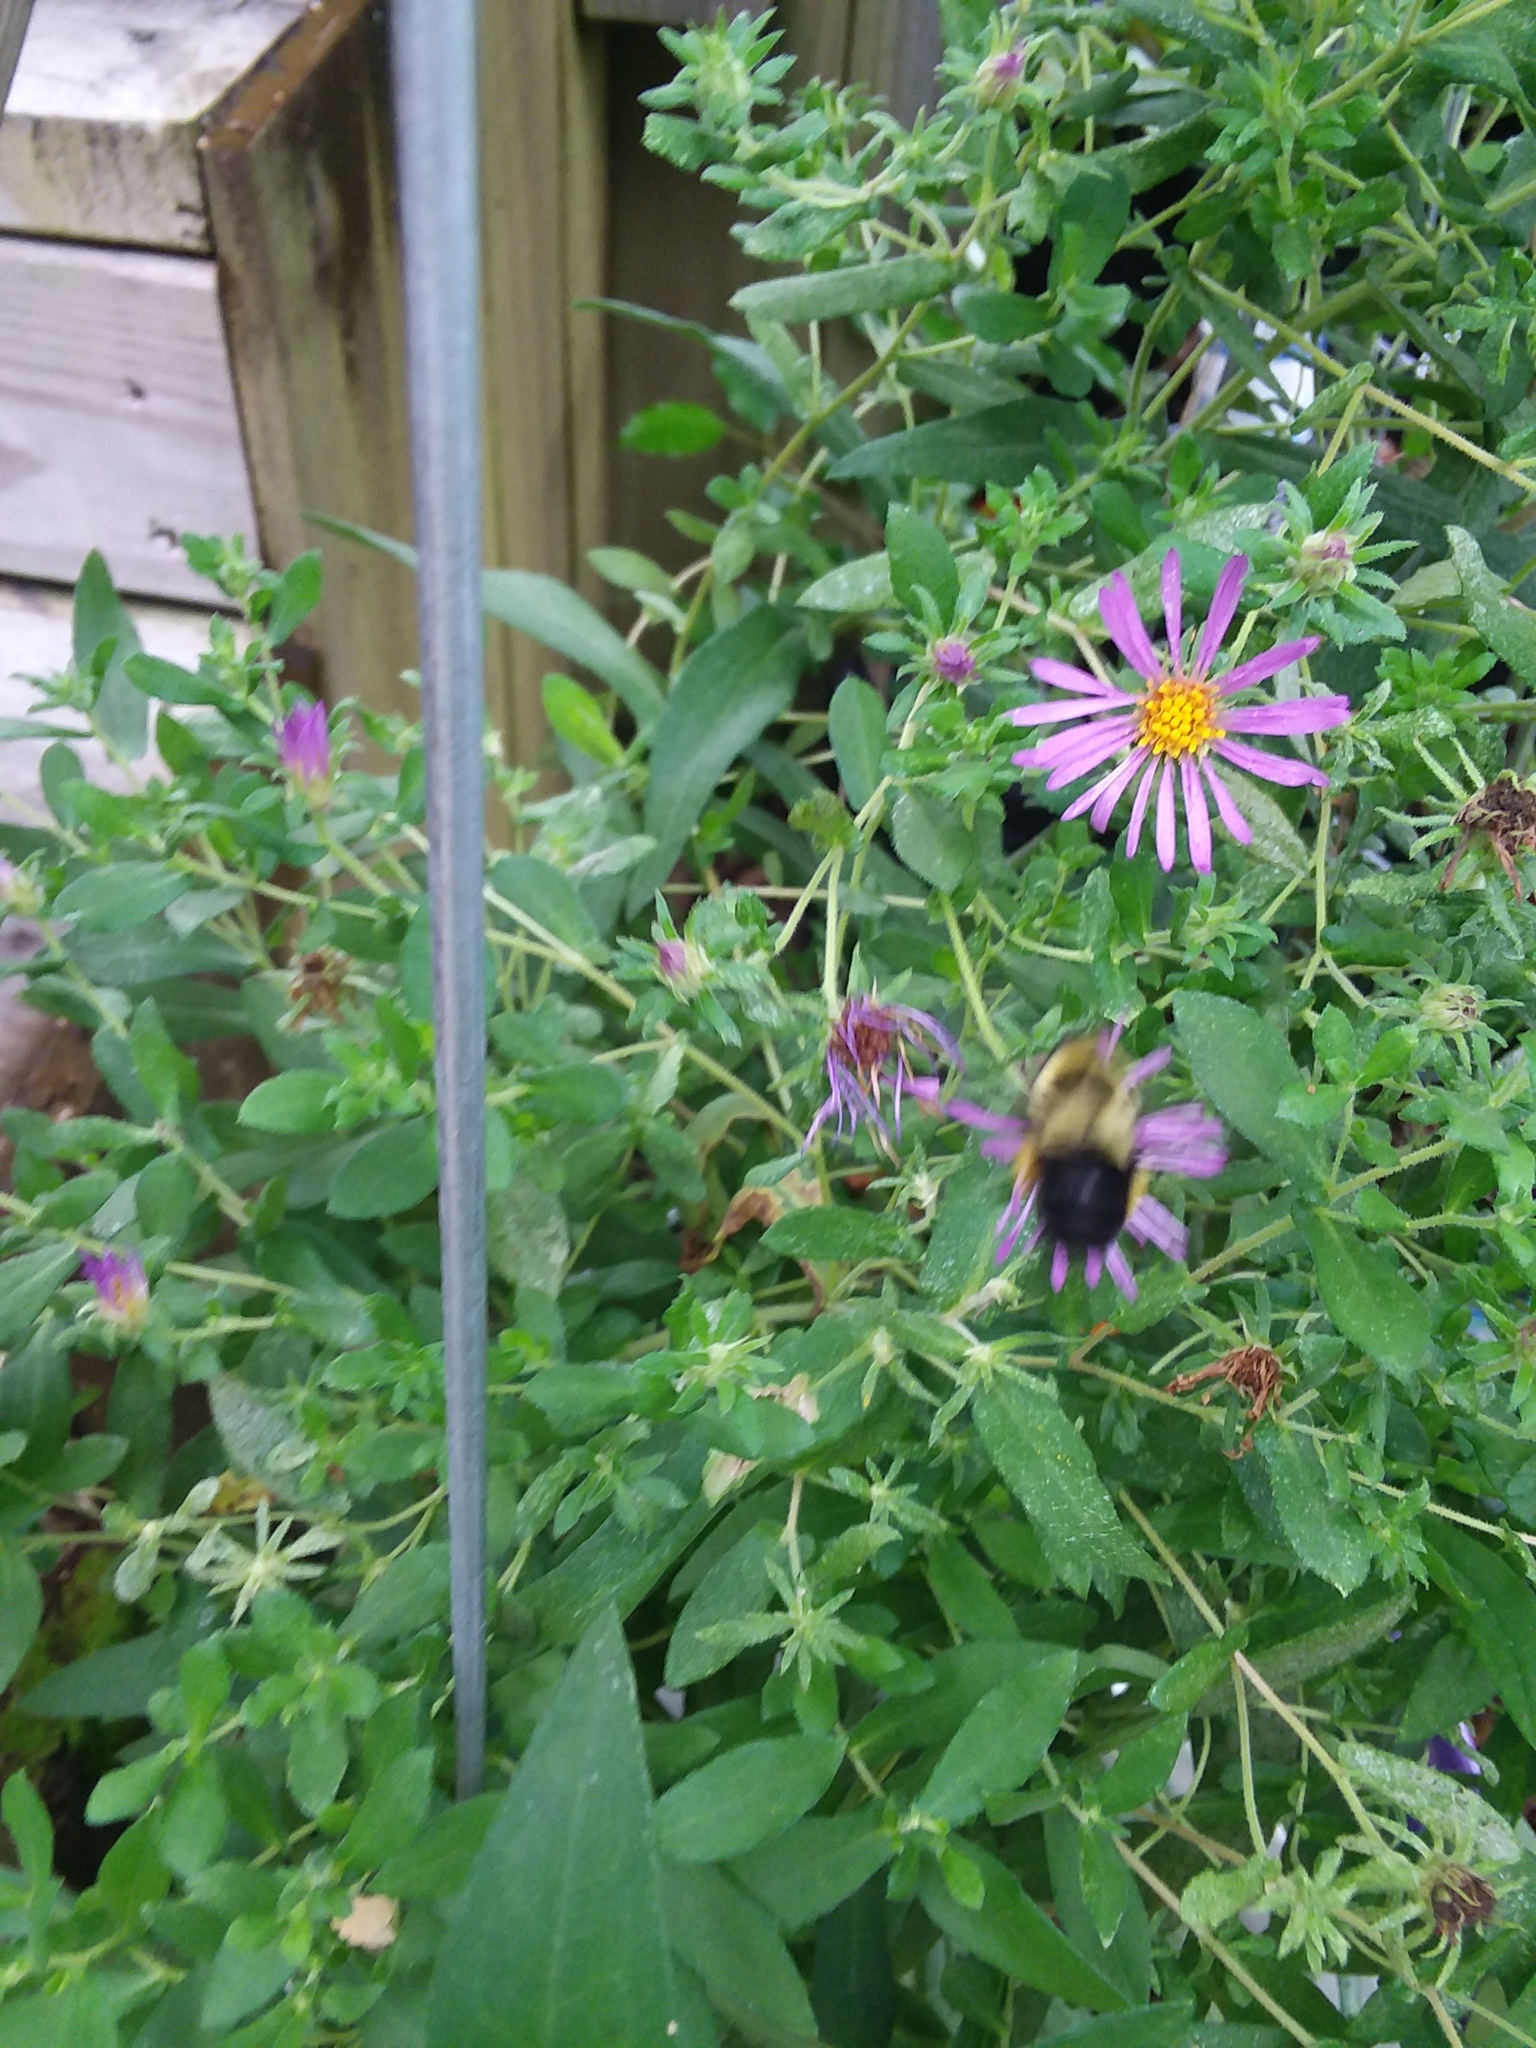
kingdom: Animalia
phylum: Arthropoda
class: Insecta
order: Hymenoptera
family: Apidae
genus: Bombus
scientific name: Bombus impatiens
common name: Common eastern bumble bee
